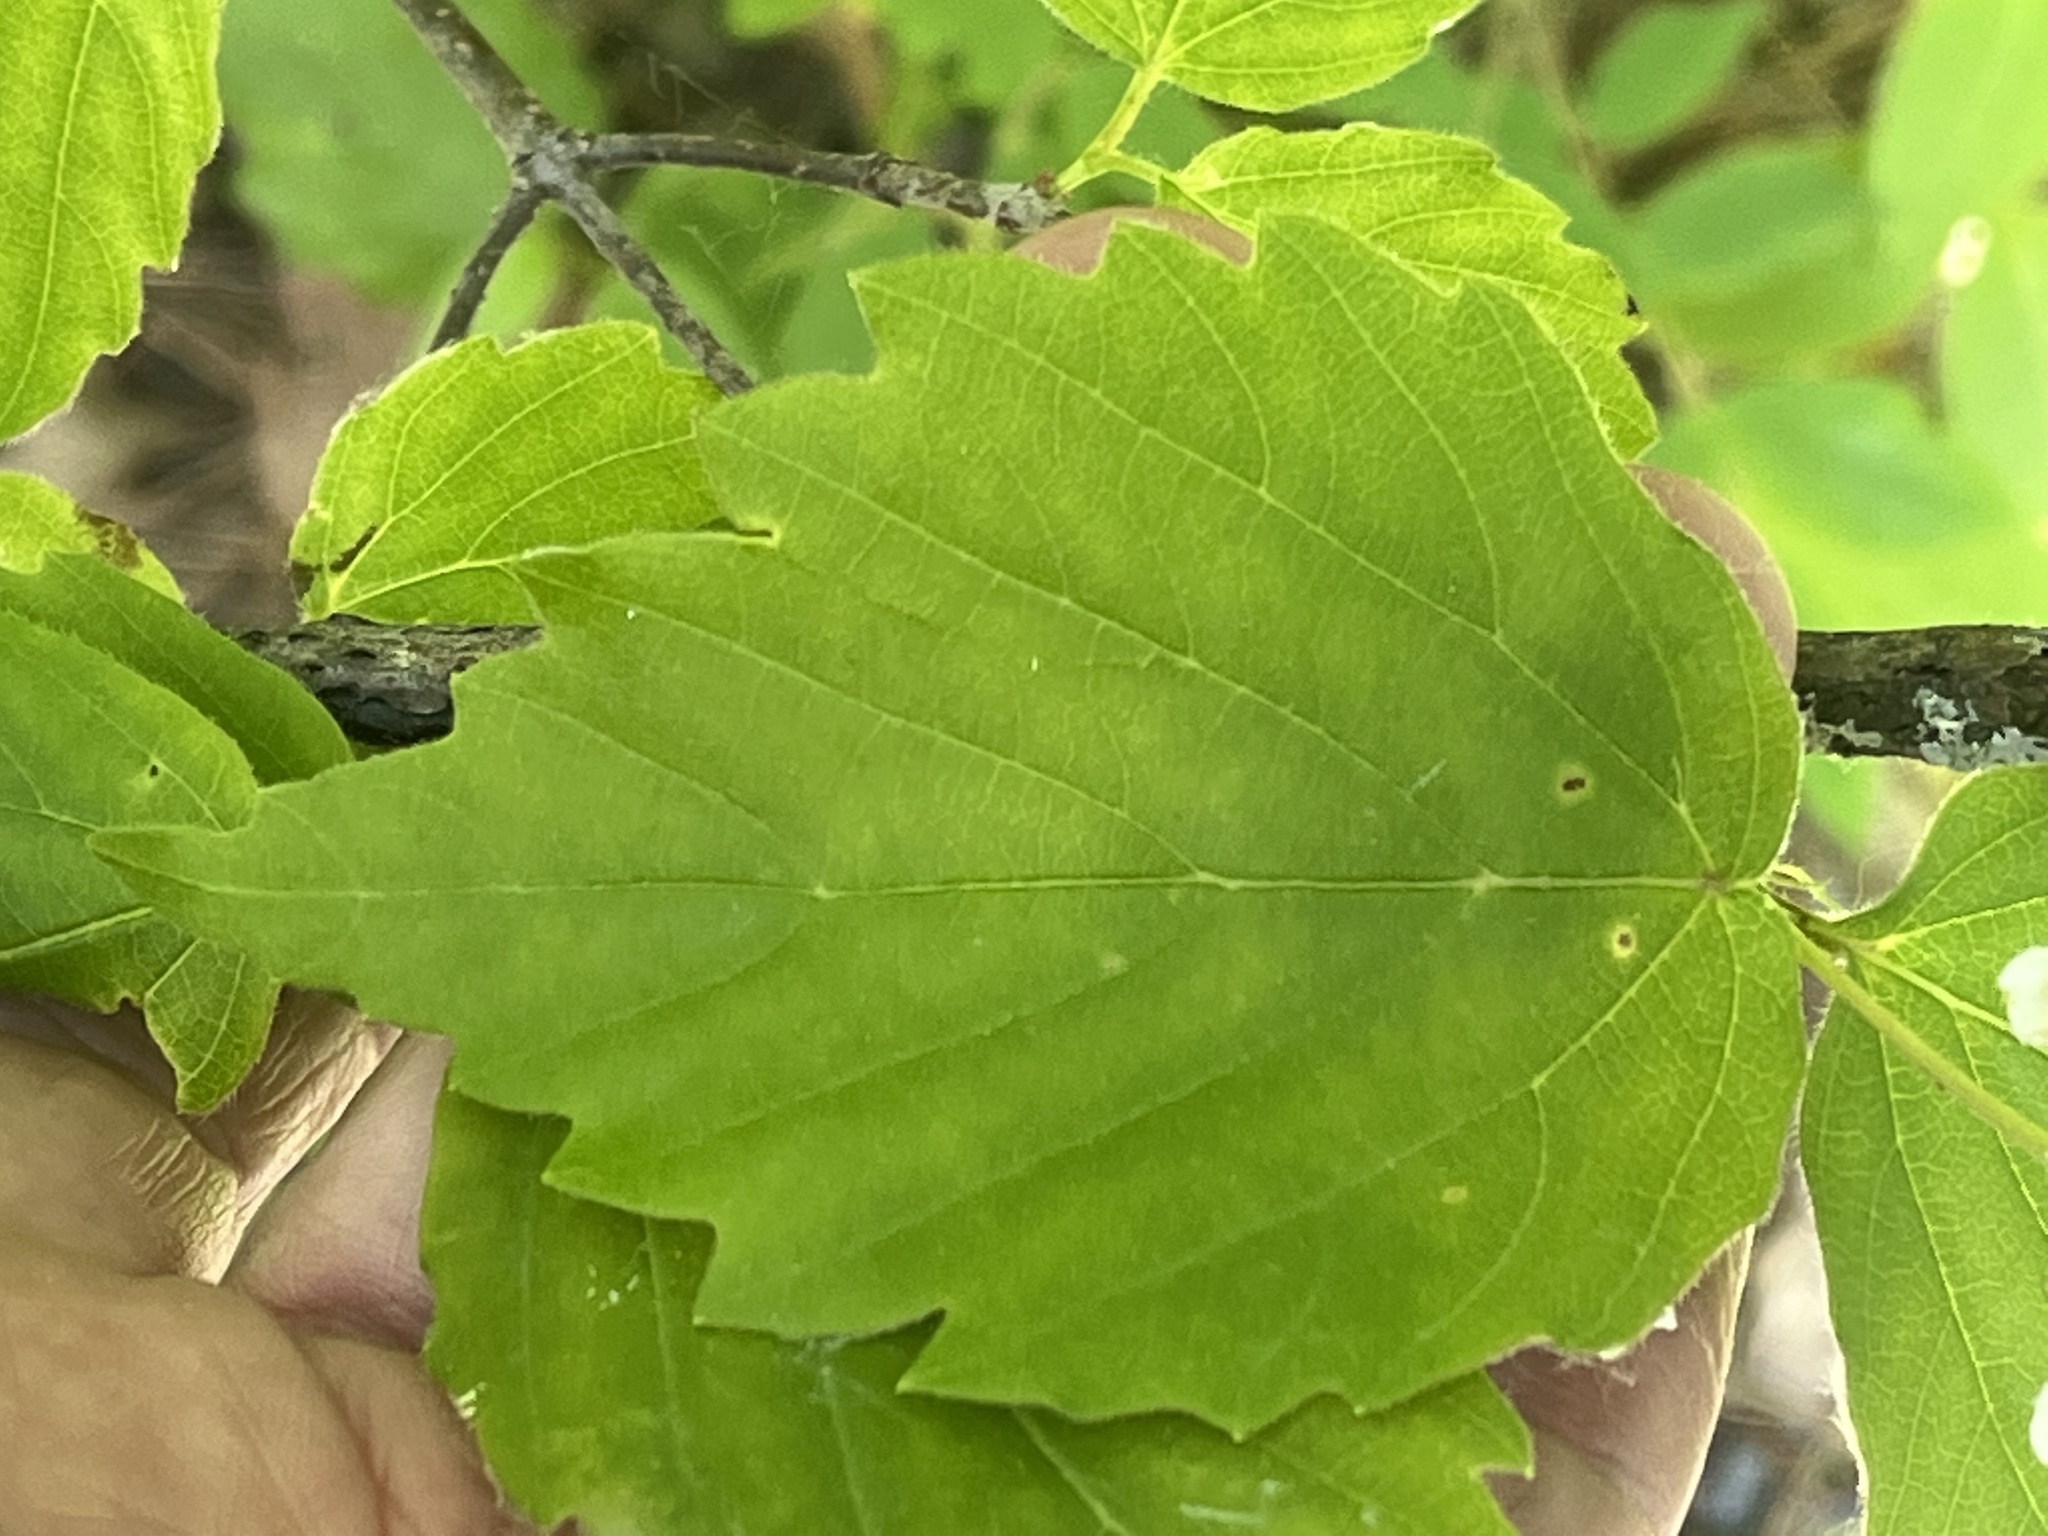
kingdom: Plantae
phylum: Tracheophyta
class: Magnoliopsida
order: Dipsacales
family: Viburnaceae
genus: Viburnum
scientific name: Viburnum rafinesqueanum
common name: Downy arrow-wood
